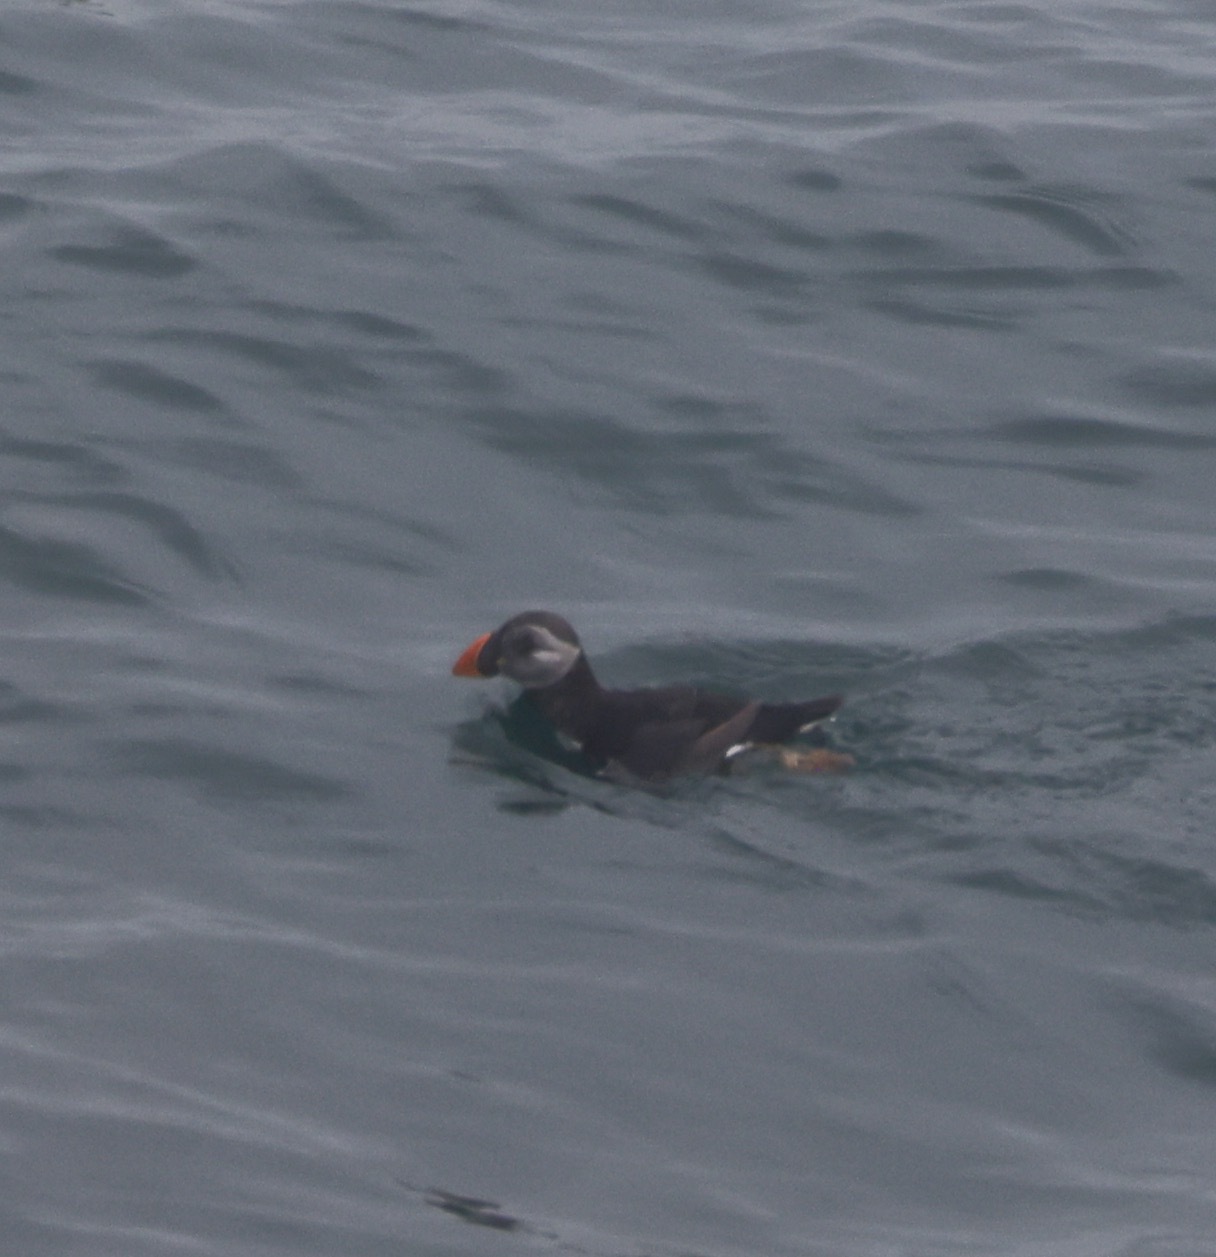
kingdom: Animalia
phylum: Chordata
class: Aves
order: Charadriiformes
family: Alcidae
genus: Fratercula
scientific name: Fratercula arctica
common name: Atlantic puffin
